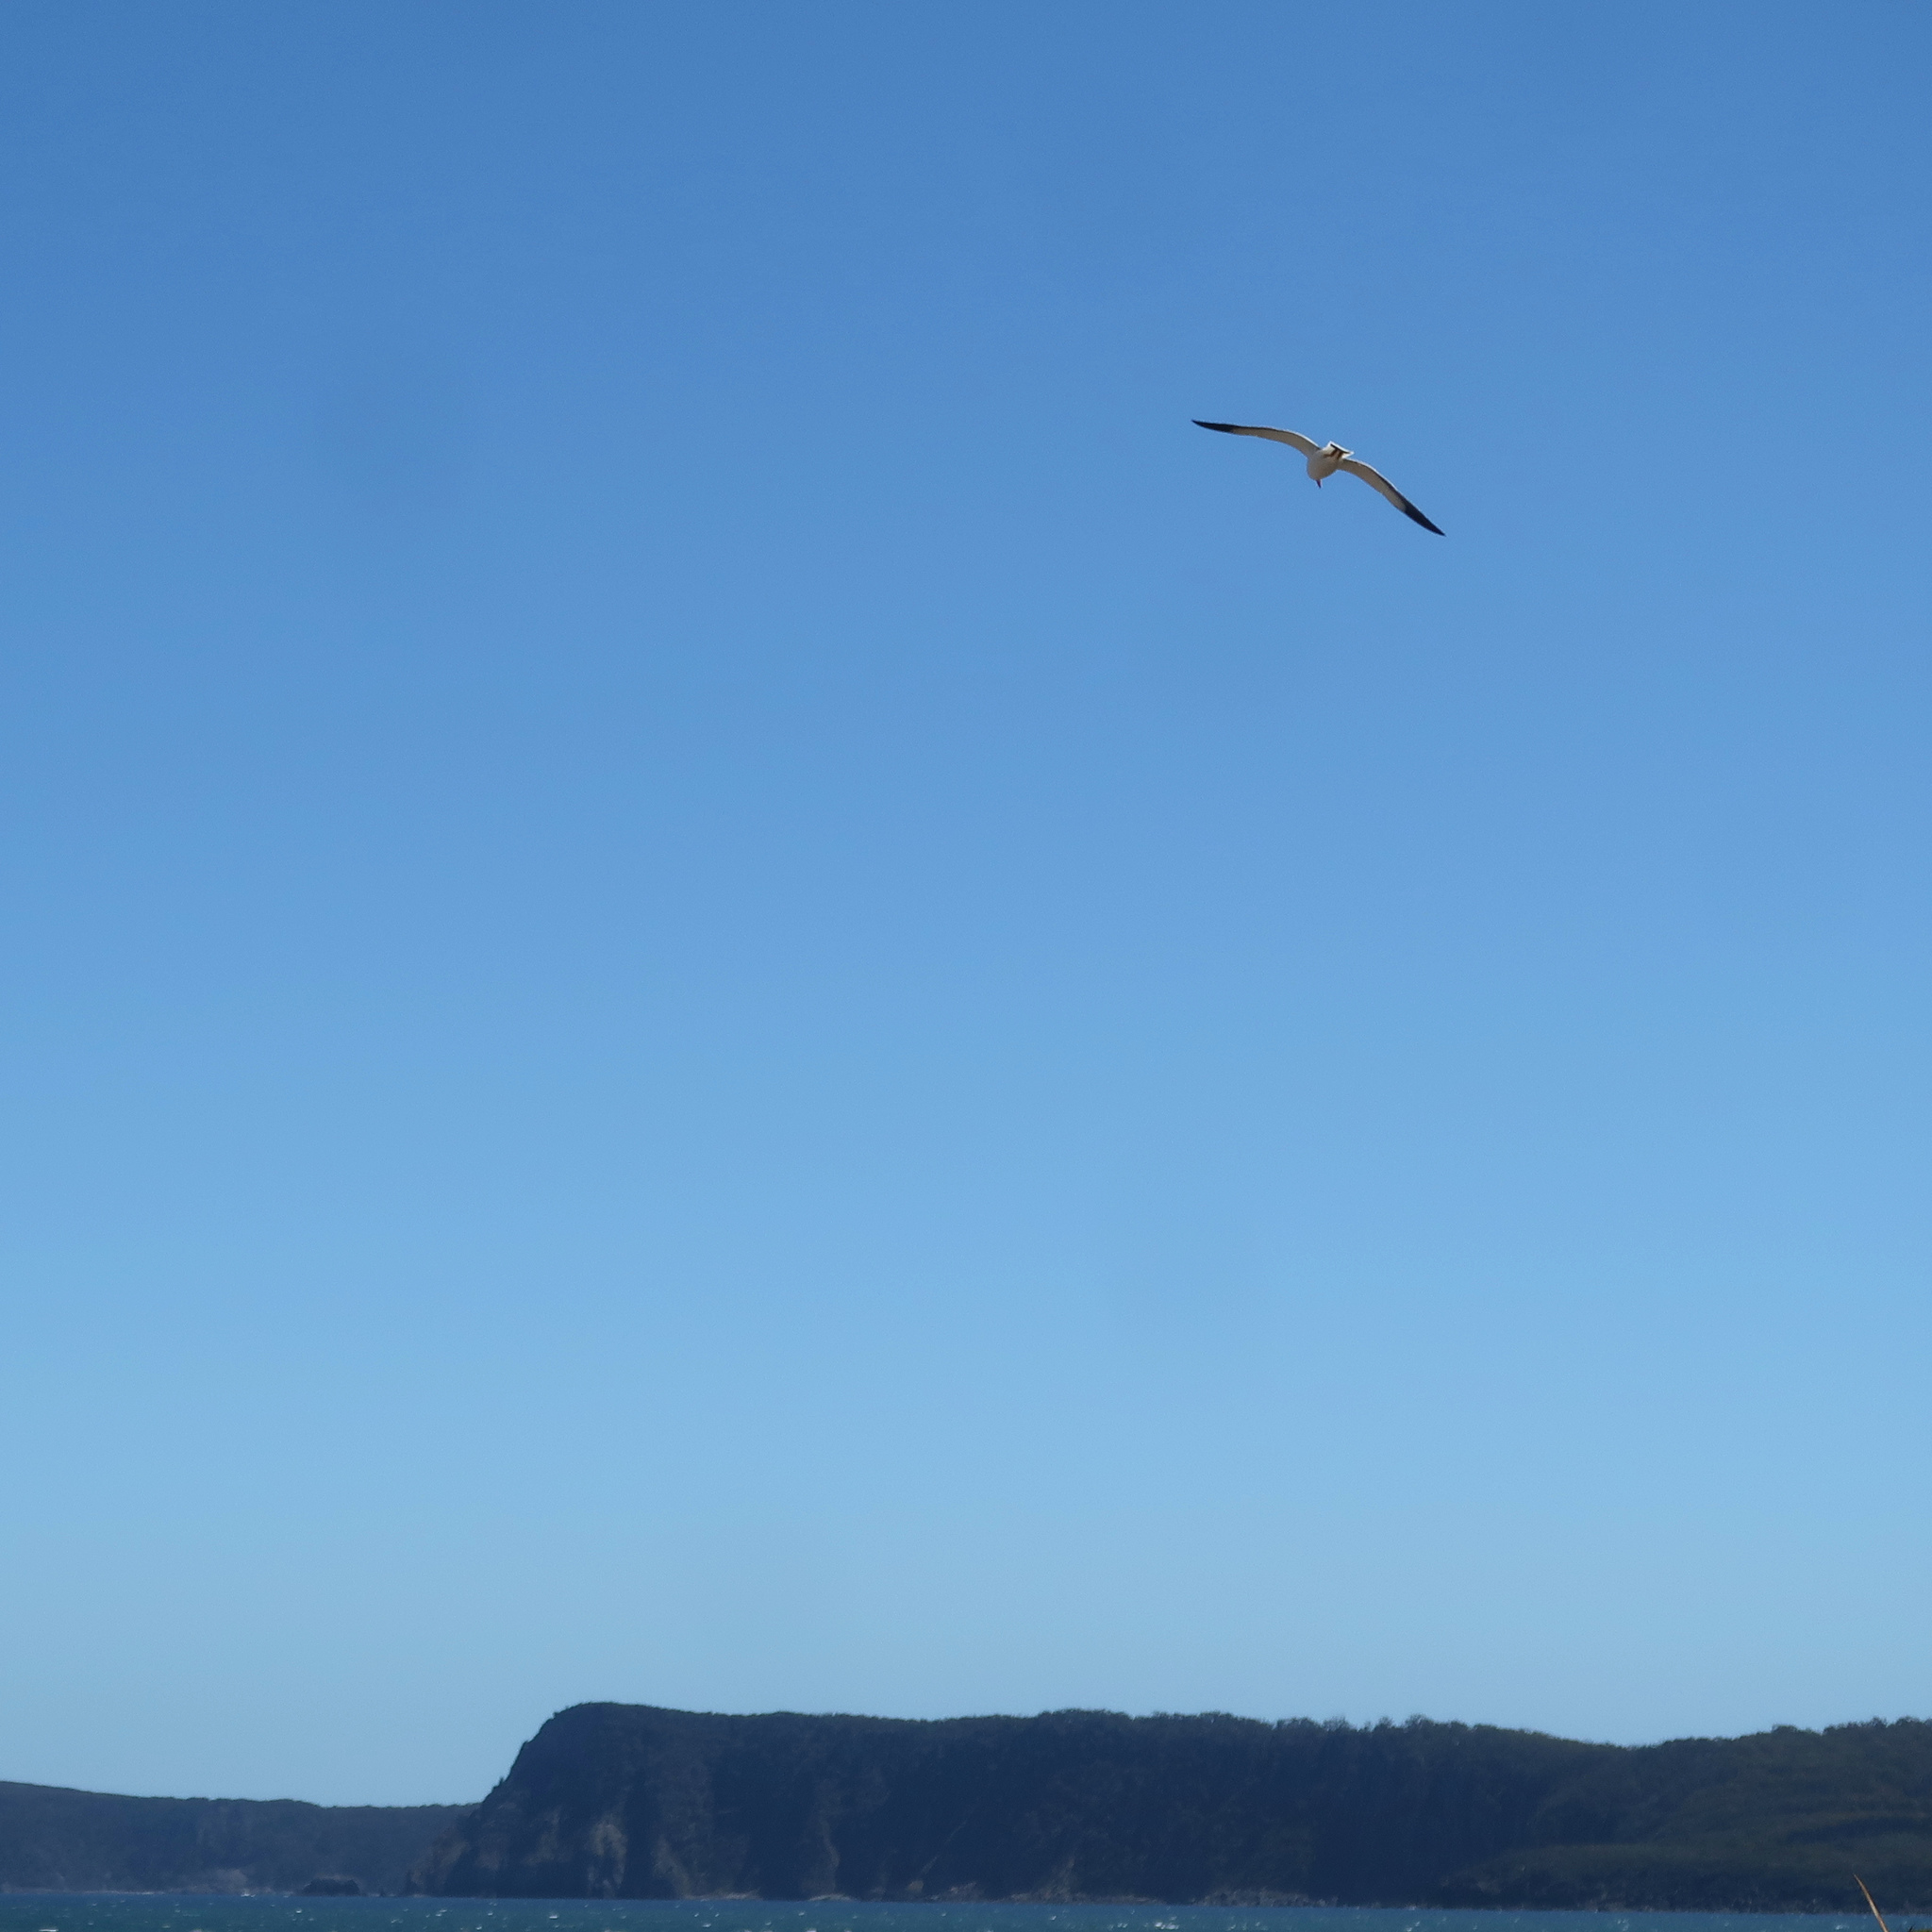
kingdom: Animalia
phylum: Chordata
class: Aves
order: Charadriiformes
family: Laridae
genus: Larus
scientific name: Larus pacificus
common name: Pacific gull
